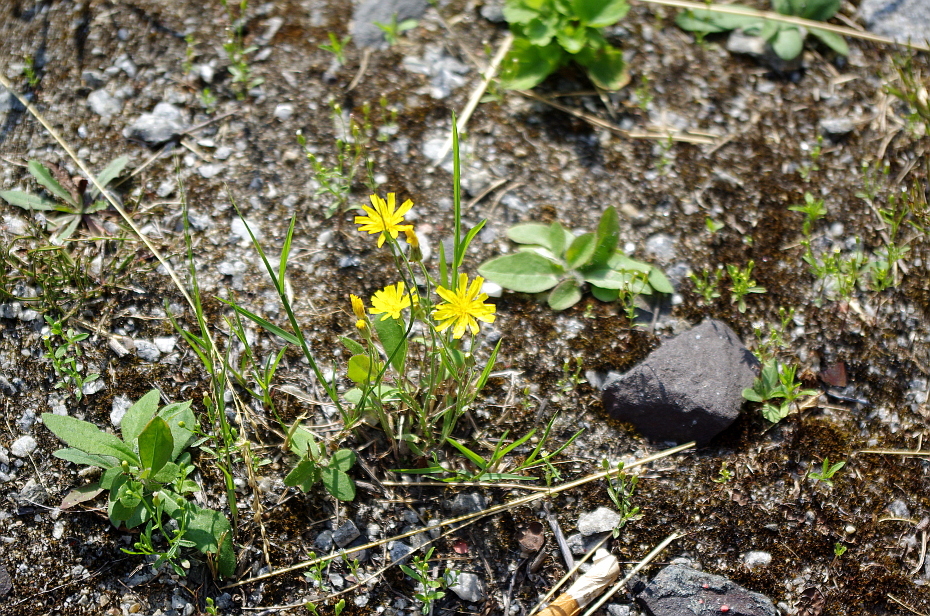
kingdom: Plantae
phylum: Tracheophyta
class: Magnoliopsida
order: Asterales
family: Asteraceae
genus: Crepis
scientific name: Crepis tectorum
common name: Narrow-leaved hawk's-beard
